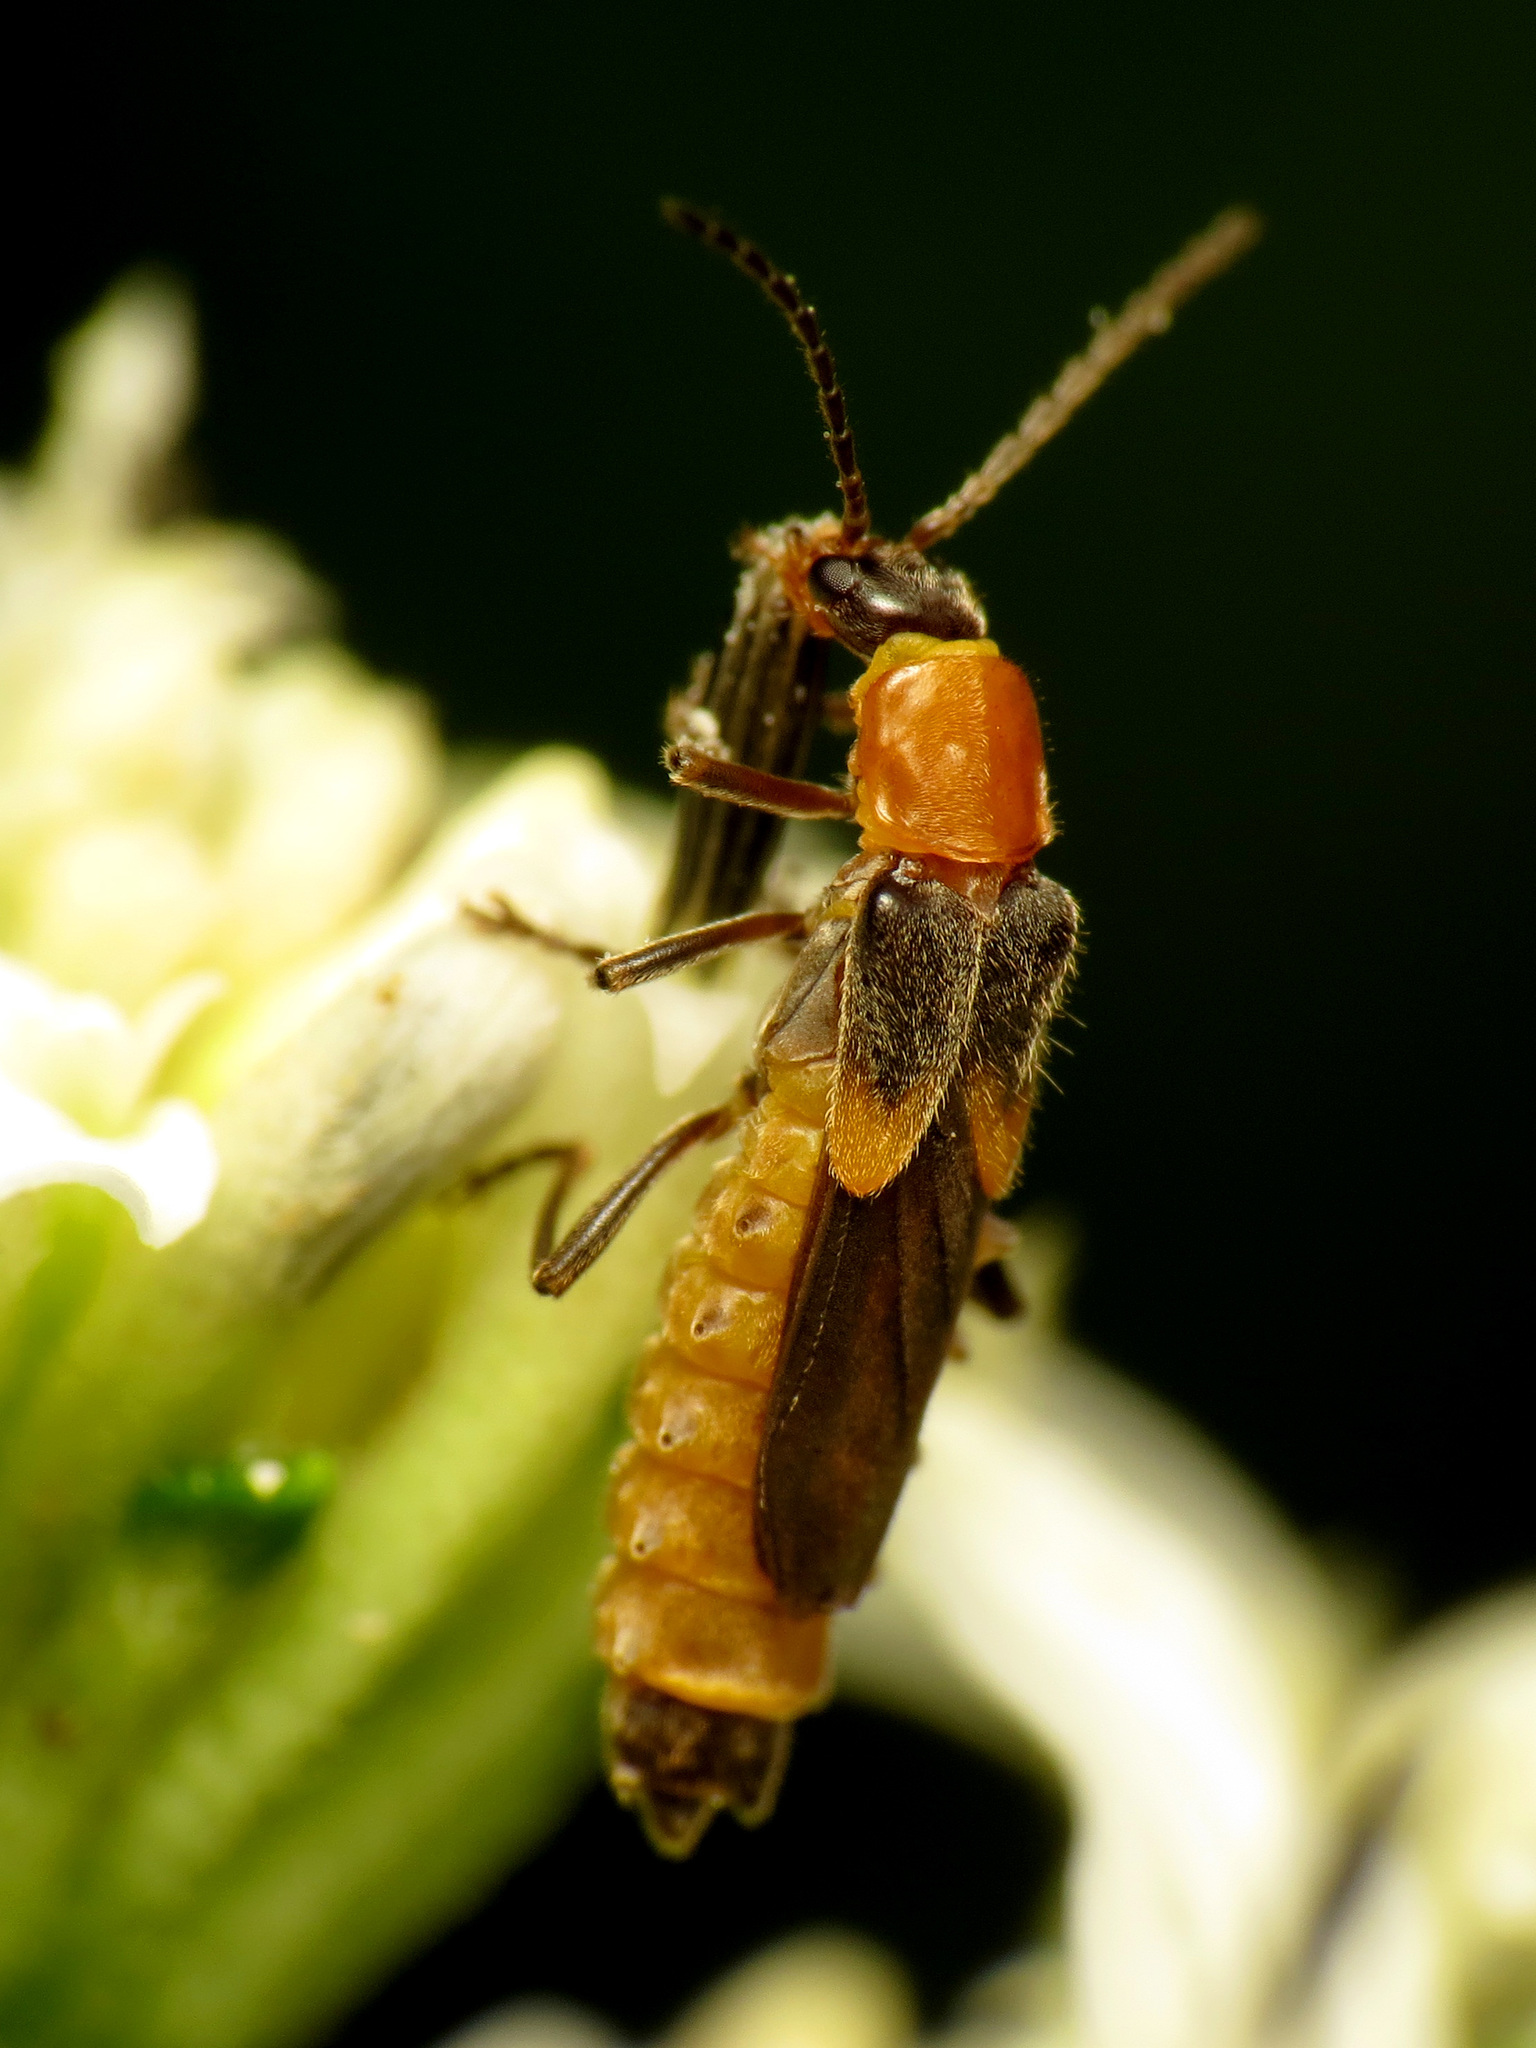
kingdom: Animalia
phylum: Arthropoda
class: Insecta
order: Coleoptera
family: Cantharidae
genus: Belotus
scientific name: Belotus abdominalis
